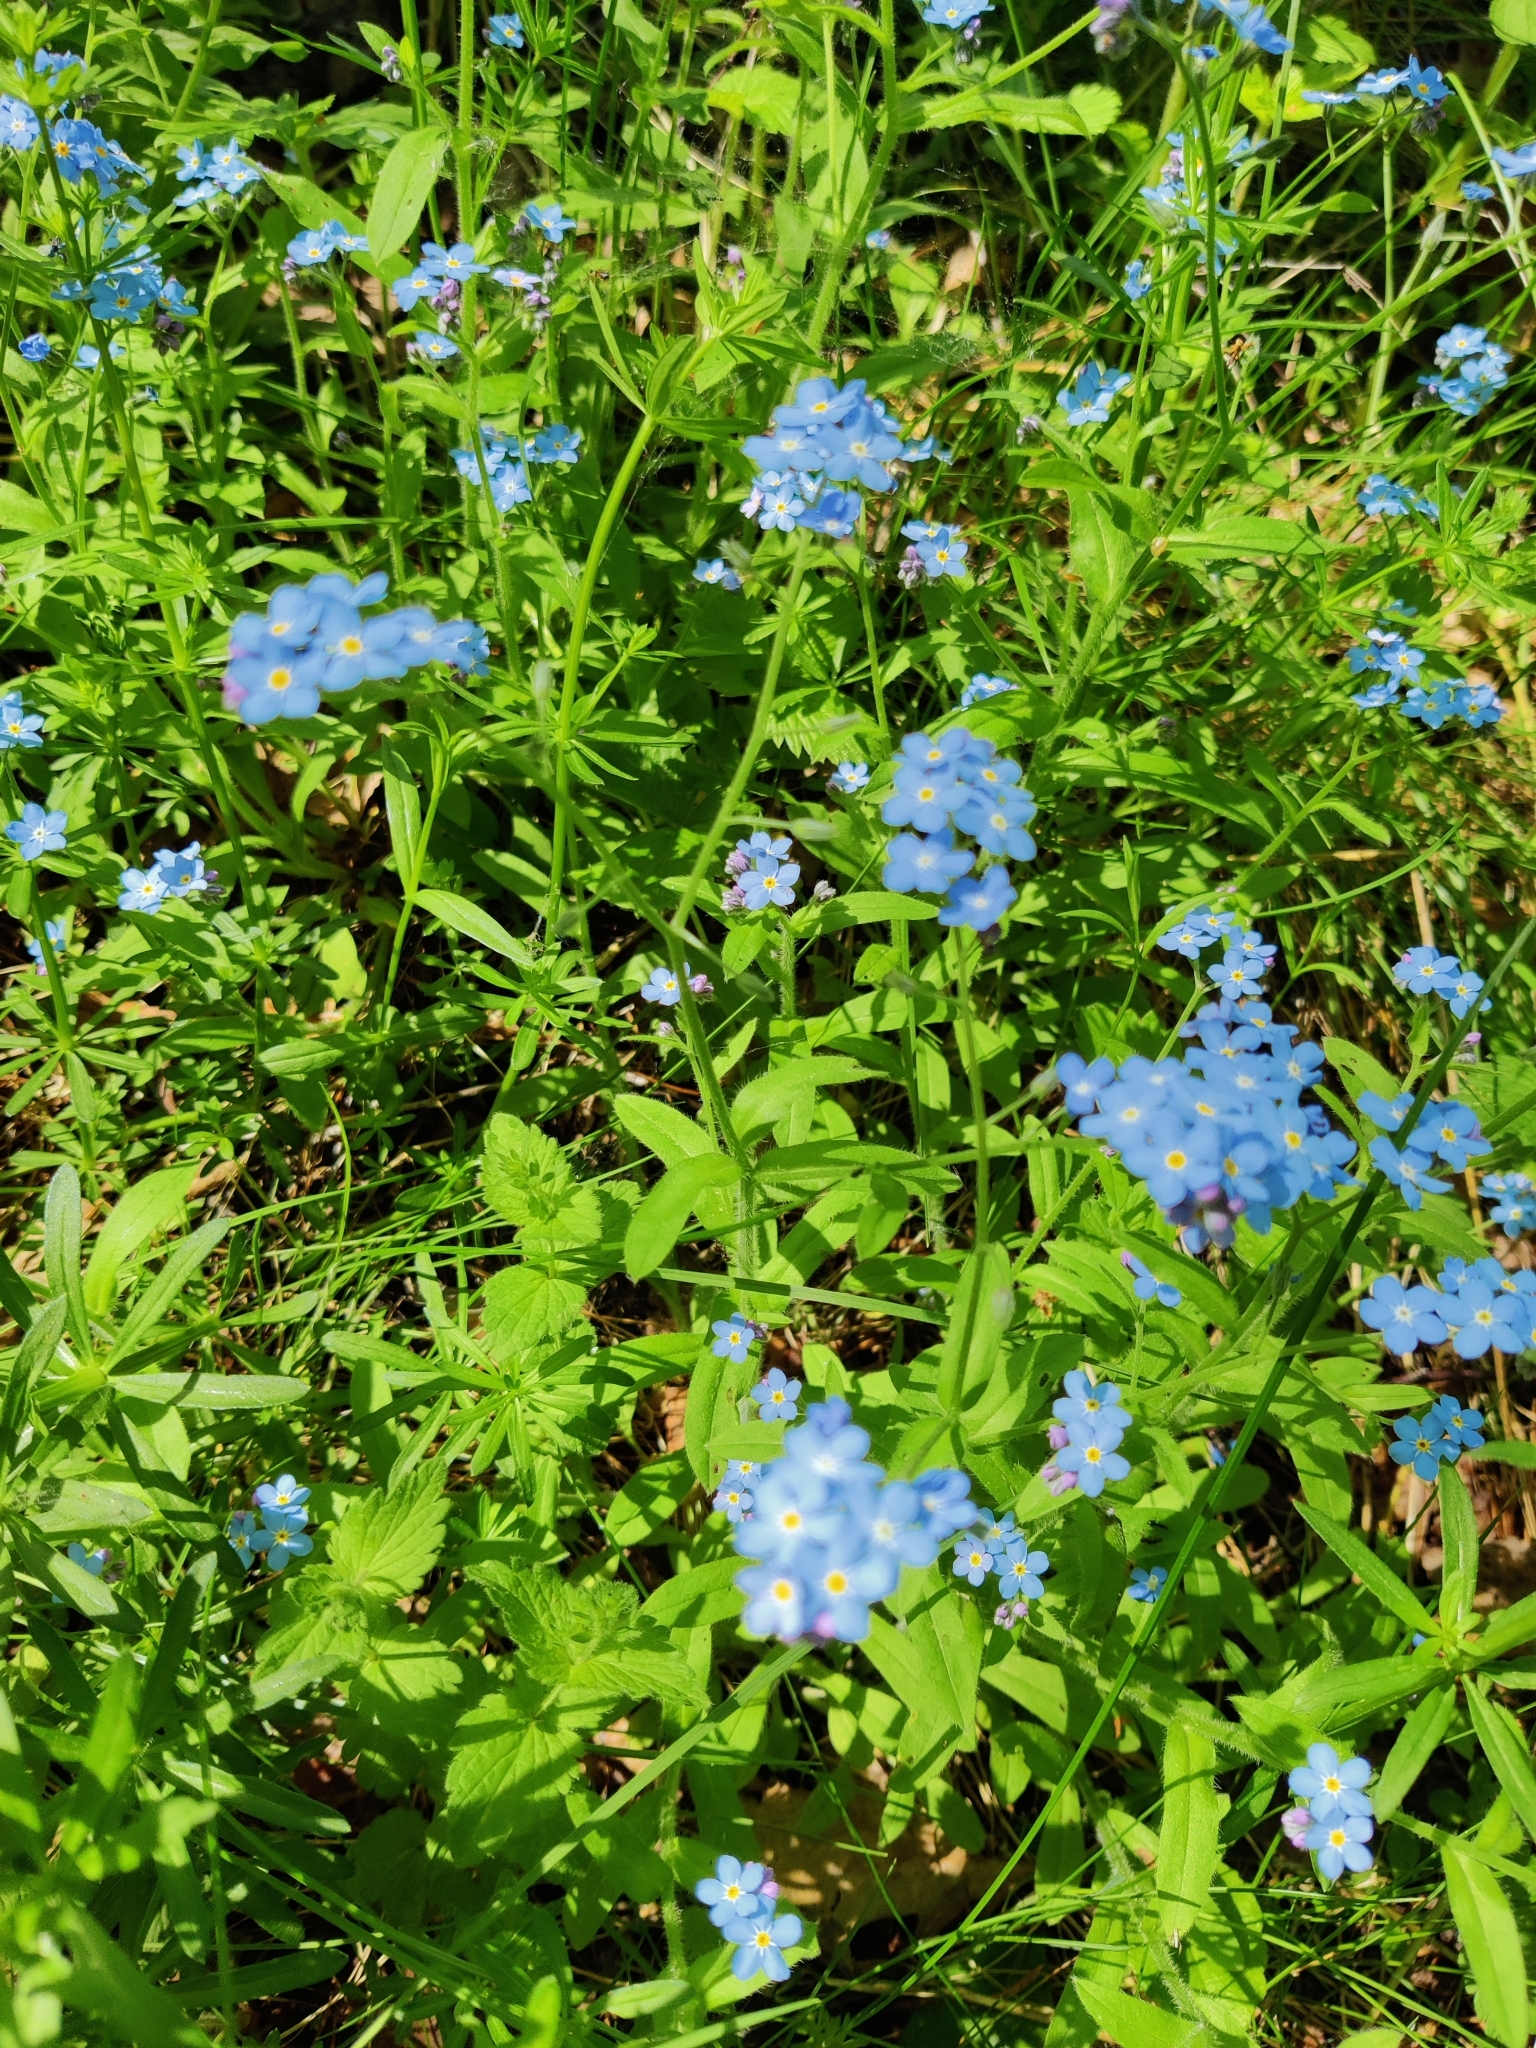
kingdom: Plantae
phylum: Tracheophyta
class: Magnoliopsida
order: Boraginales
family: Boraginaceae
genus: Myosotis
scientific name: Myosotis sylvatica
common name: Wood forget-me-not
